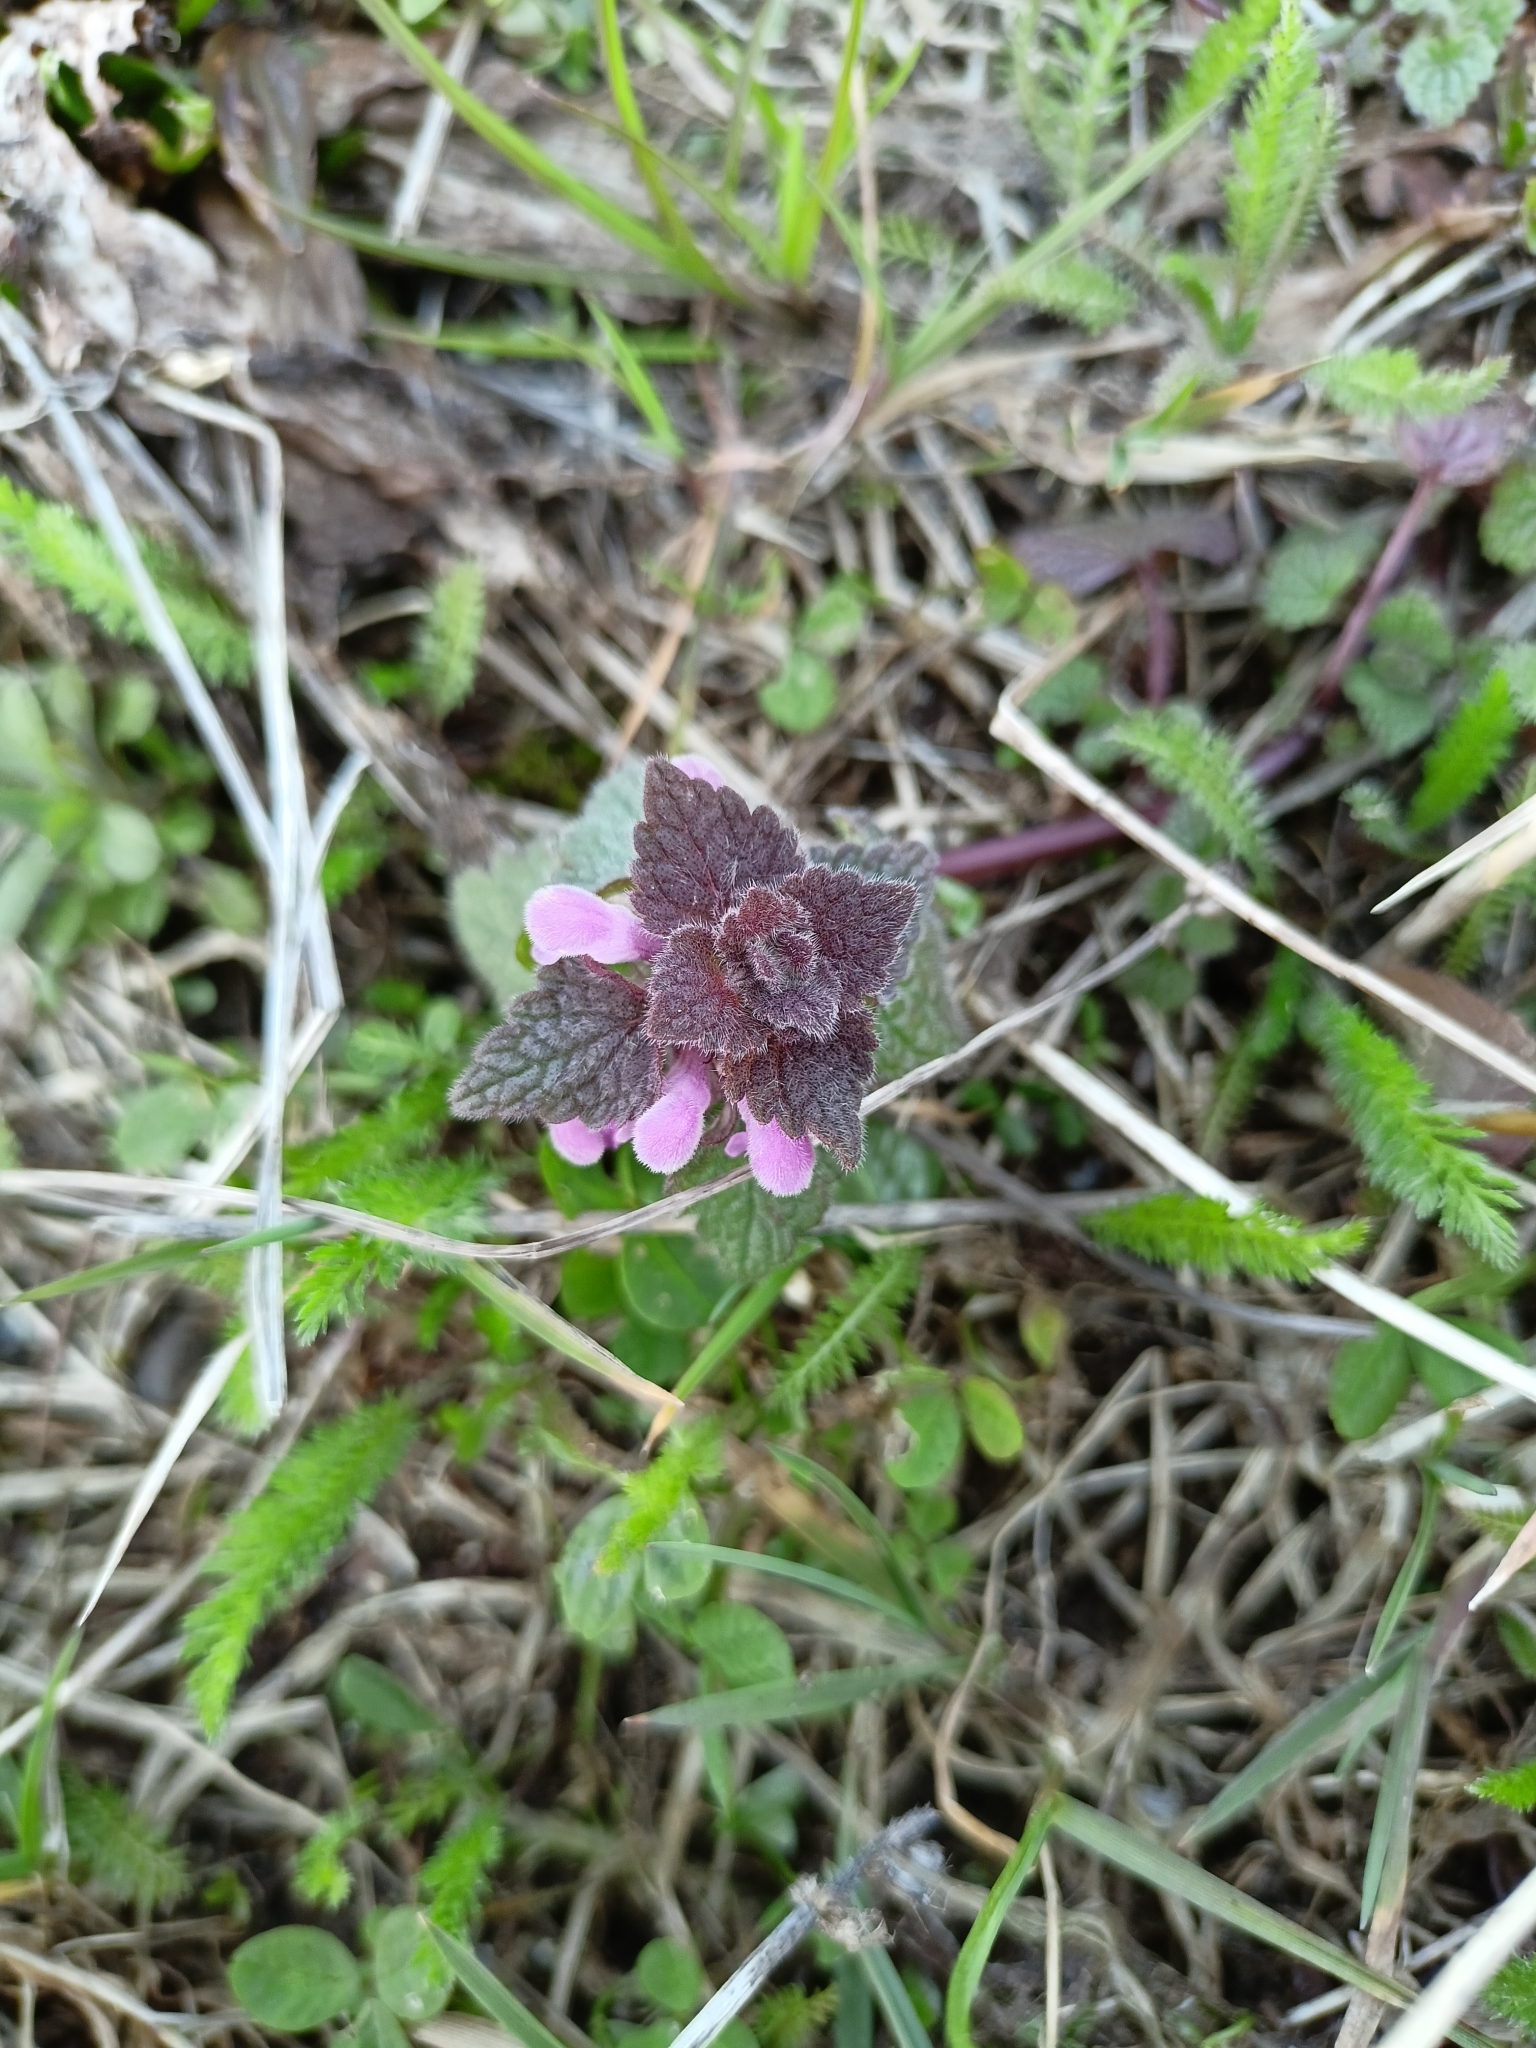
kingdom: Plantae
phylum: Tracheophyta
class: Magnoliopsida
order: Lamiales
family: Lamiaceae
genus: Lamium
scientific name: Lamium purpureum
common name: Red dead-nettle
